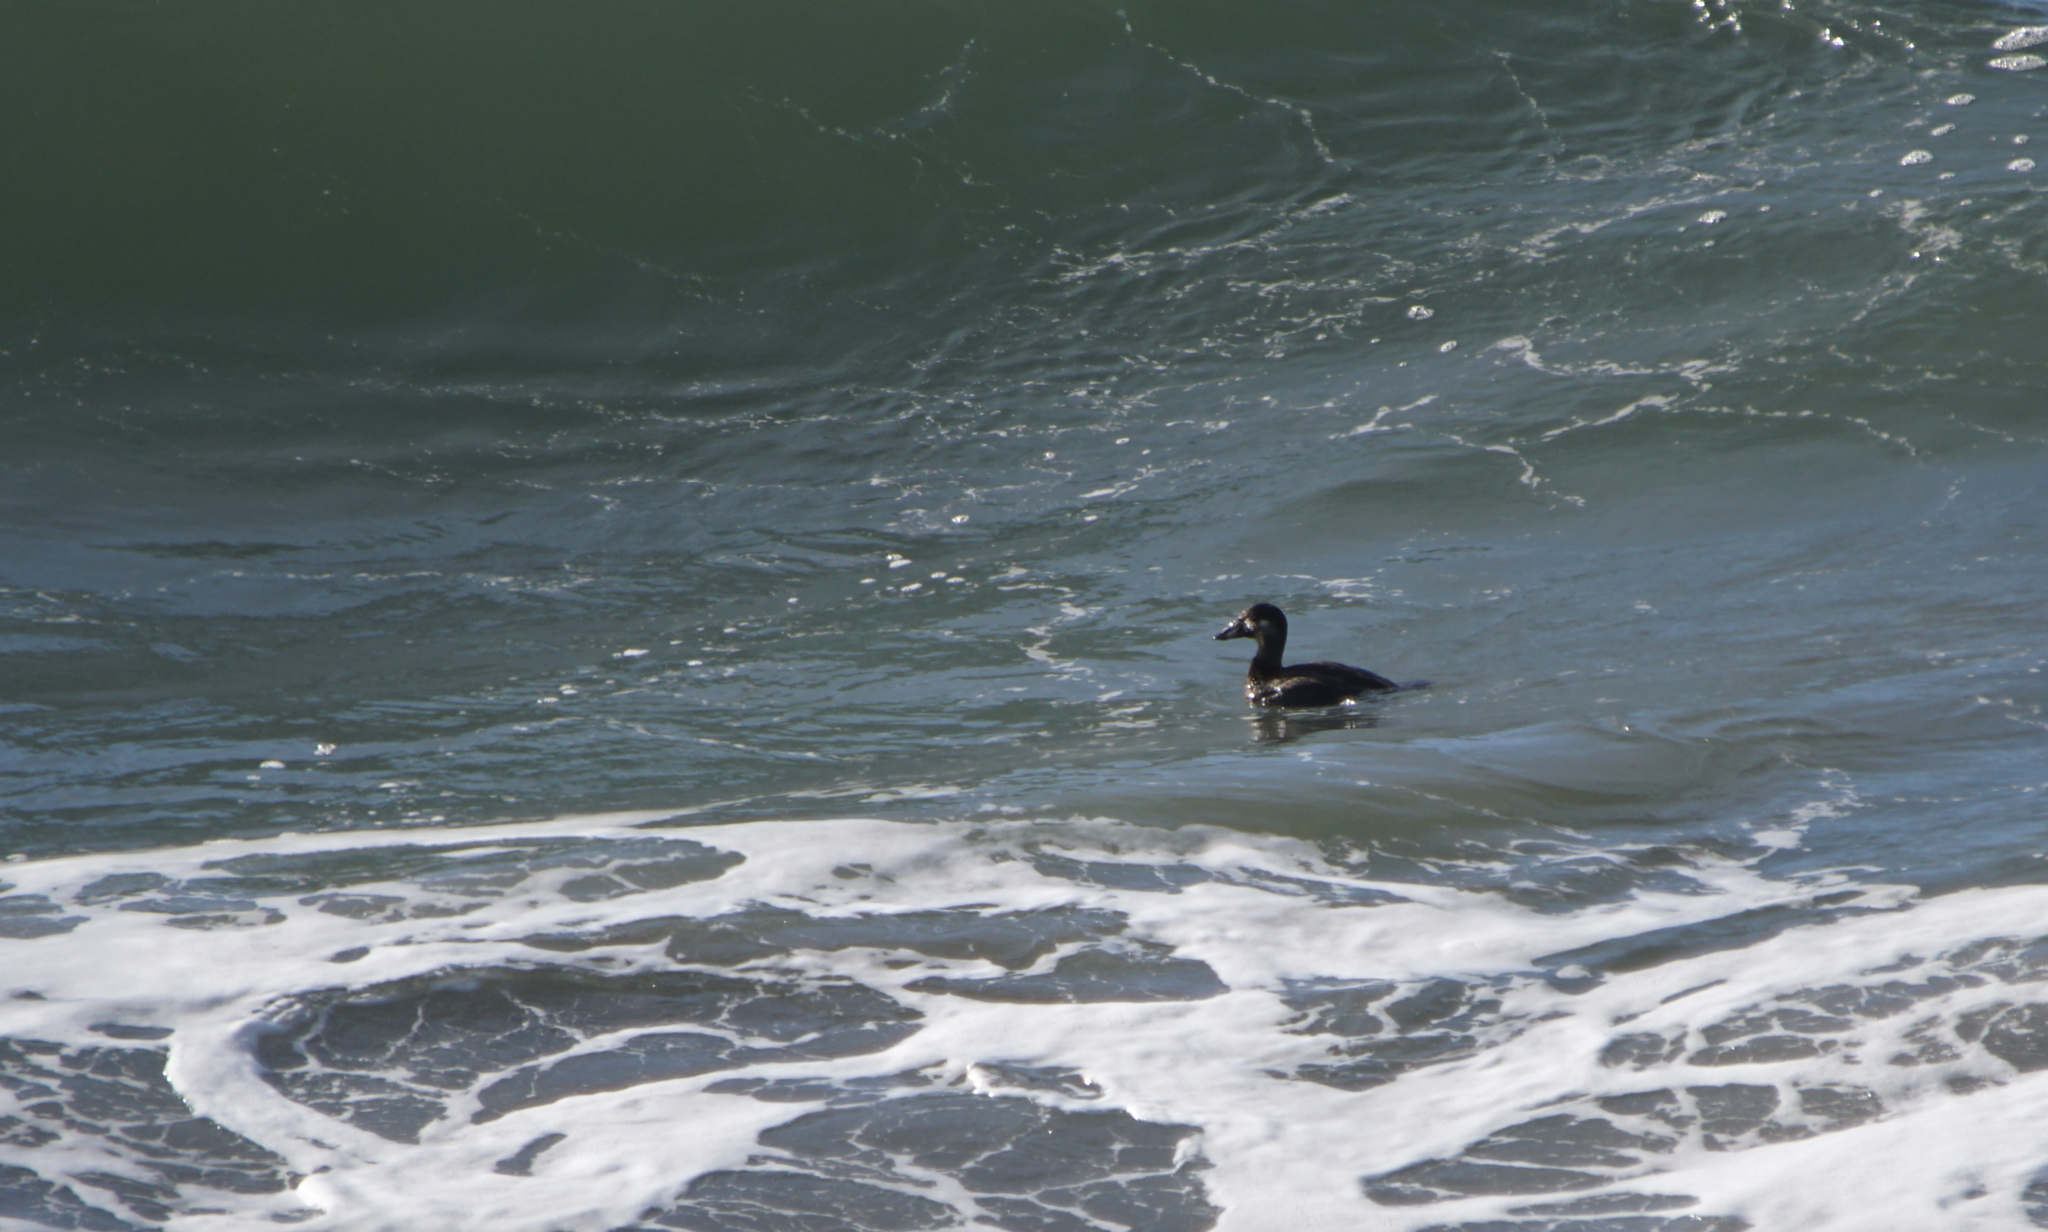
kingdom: Animalia
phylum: Chordata
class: Aves
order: Anseriformes
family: Anatidae
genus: Melanitta
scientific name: Melanitta perspicillata
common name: Surf scoter
